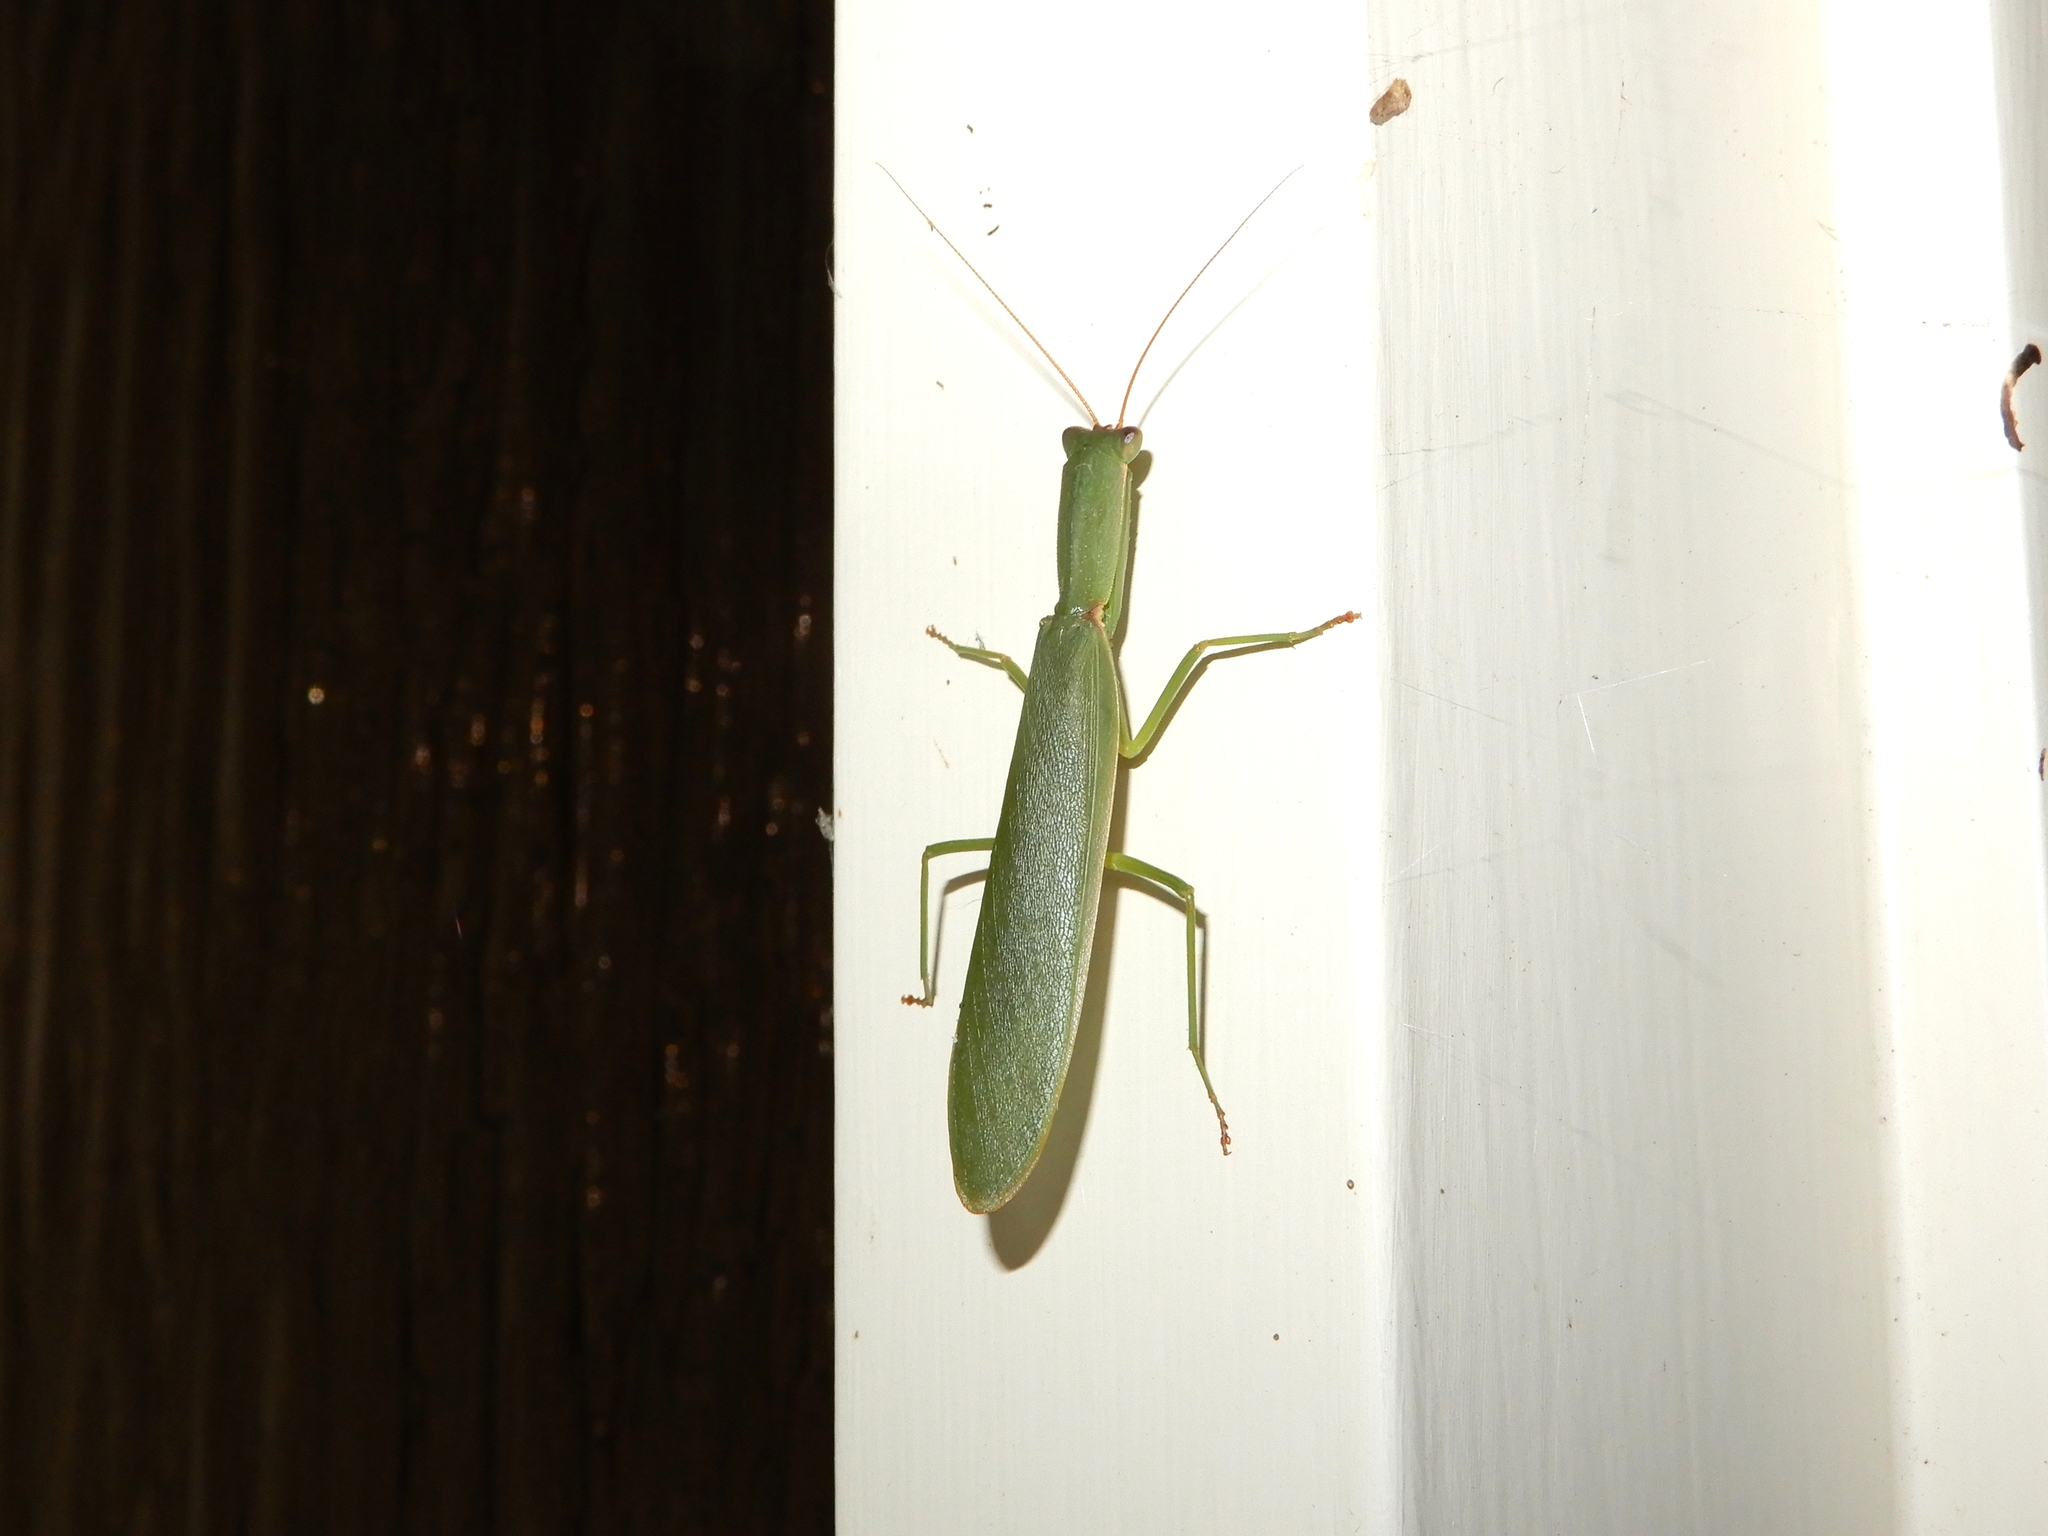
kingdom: Animalia
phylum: Arthropoda
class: Insecta
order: Mantodea
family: Mantidae
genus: Orthodera
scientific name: Orthodera novaezealandiae
